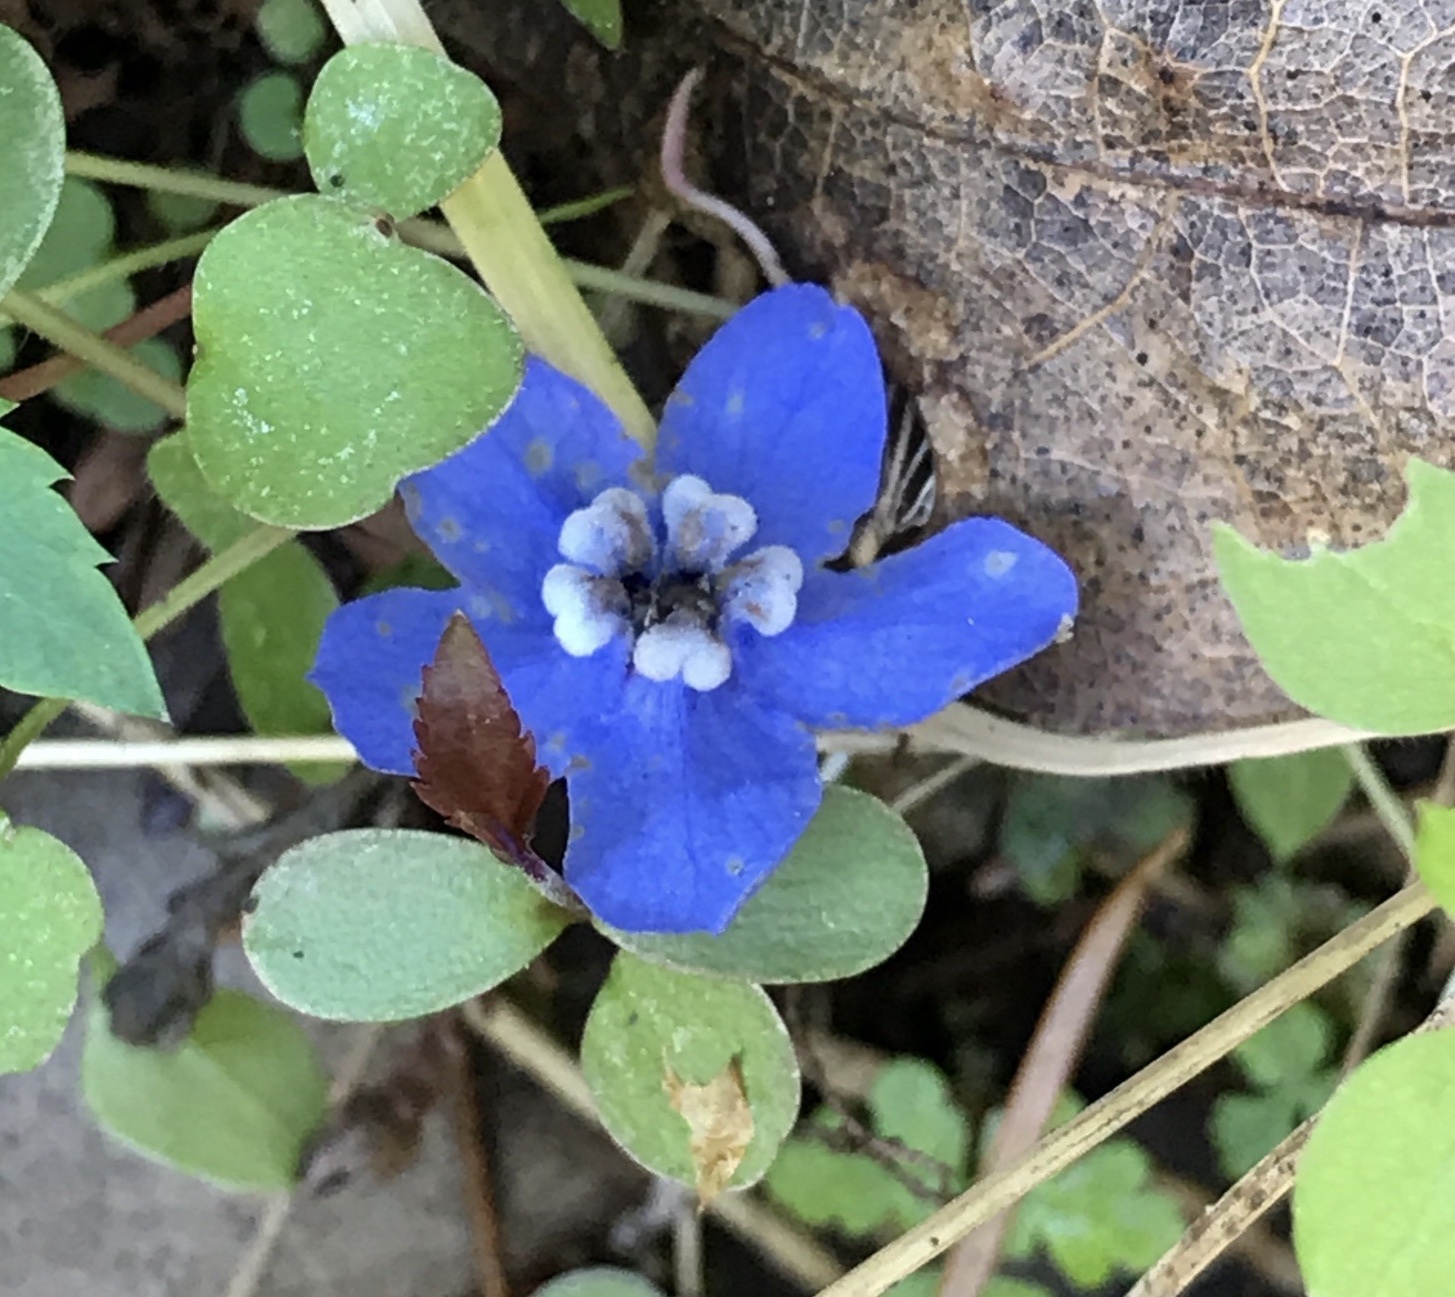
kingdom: Plantae
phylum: Tracheophyta
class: Magnoliopsida
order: Boraginales
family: Boraginaceae
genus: Adelinia
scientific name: Adelinia grande
